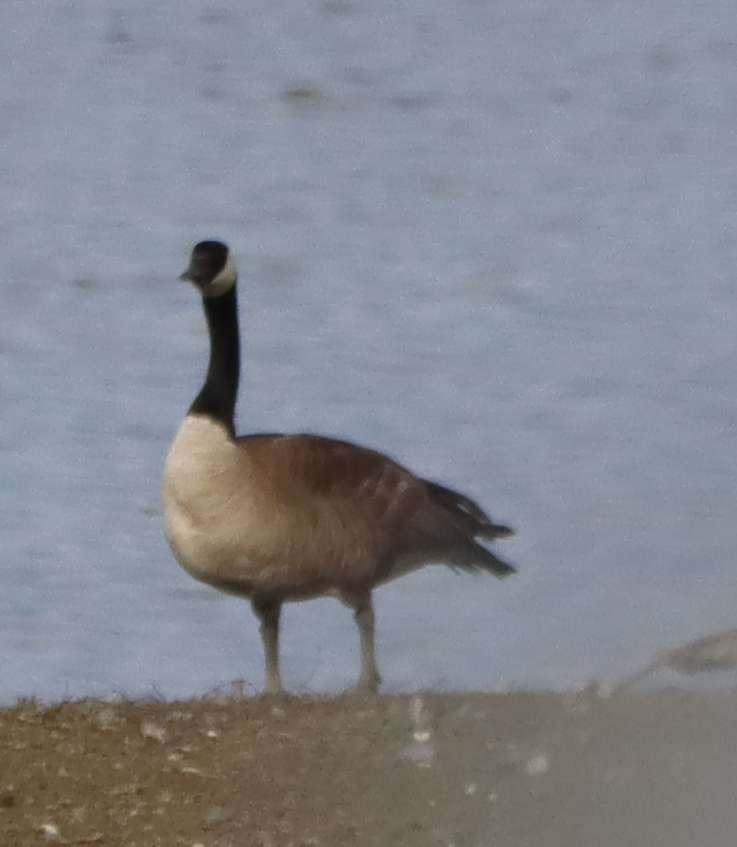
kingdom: Animalia
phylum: Chordata
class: Aves
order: Anseriformes
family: Anatidae
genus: Branta
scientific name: Branta canadensis
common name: Canada goose
